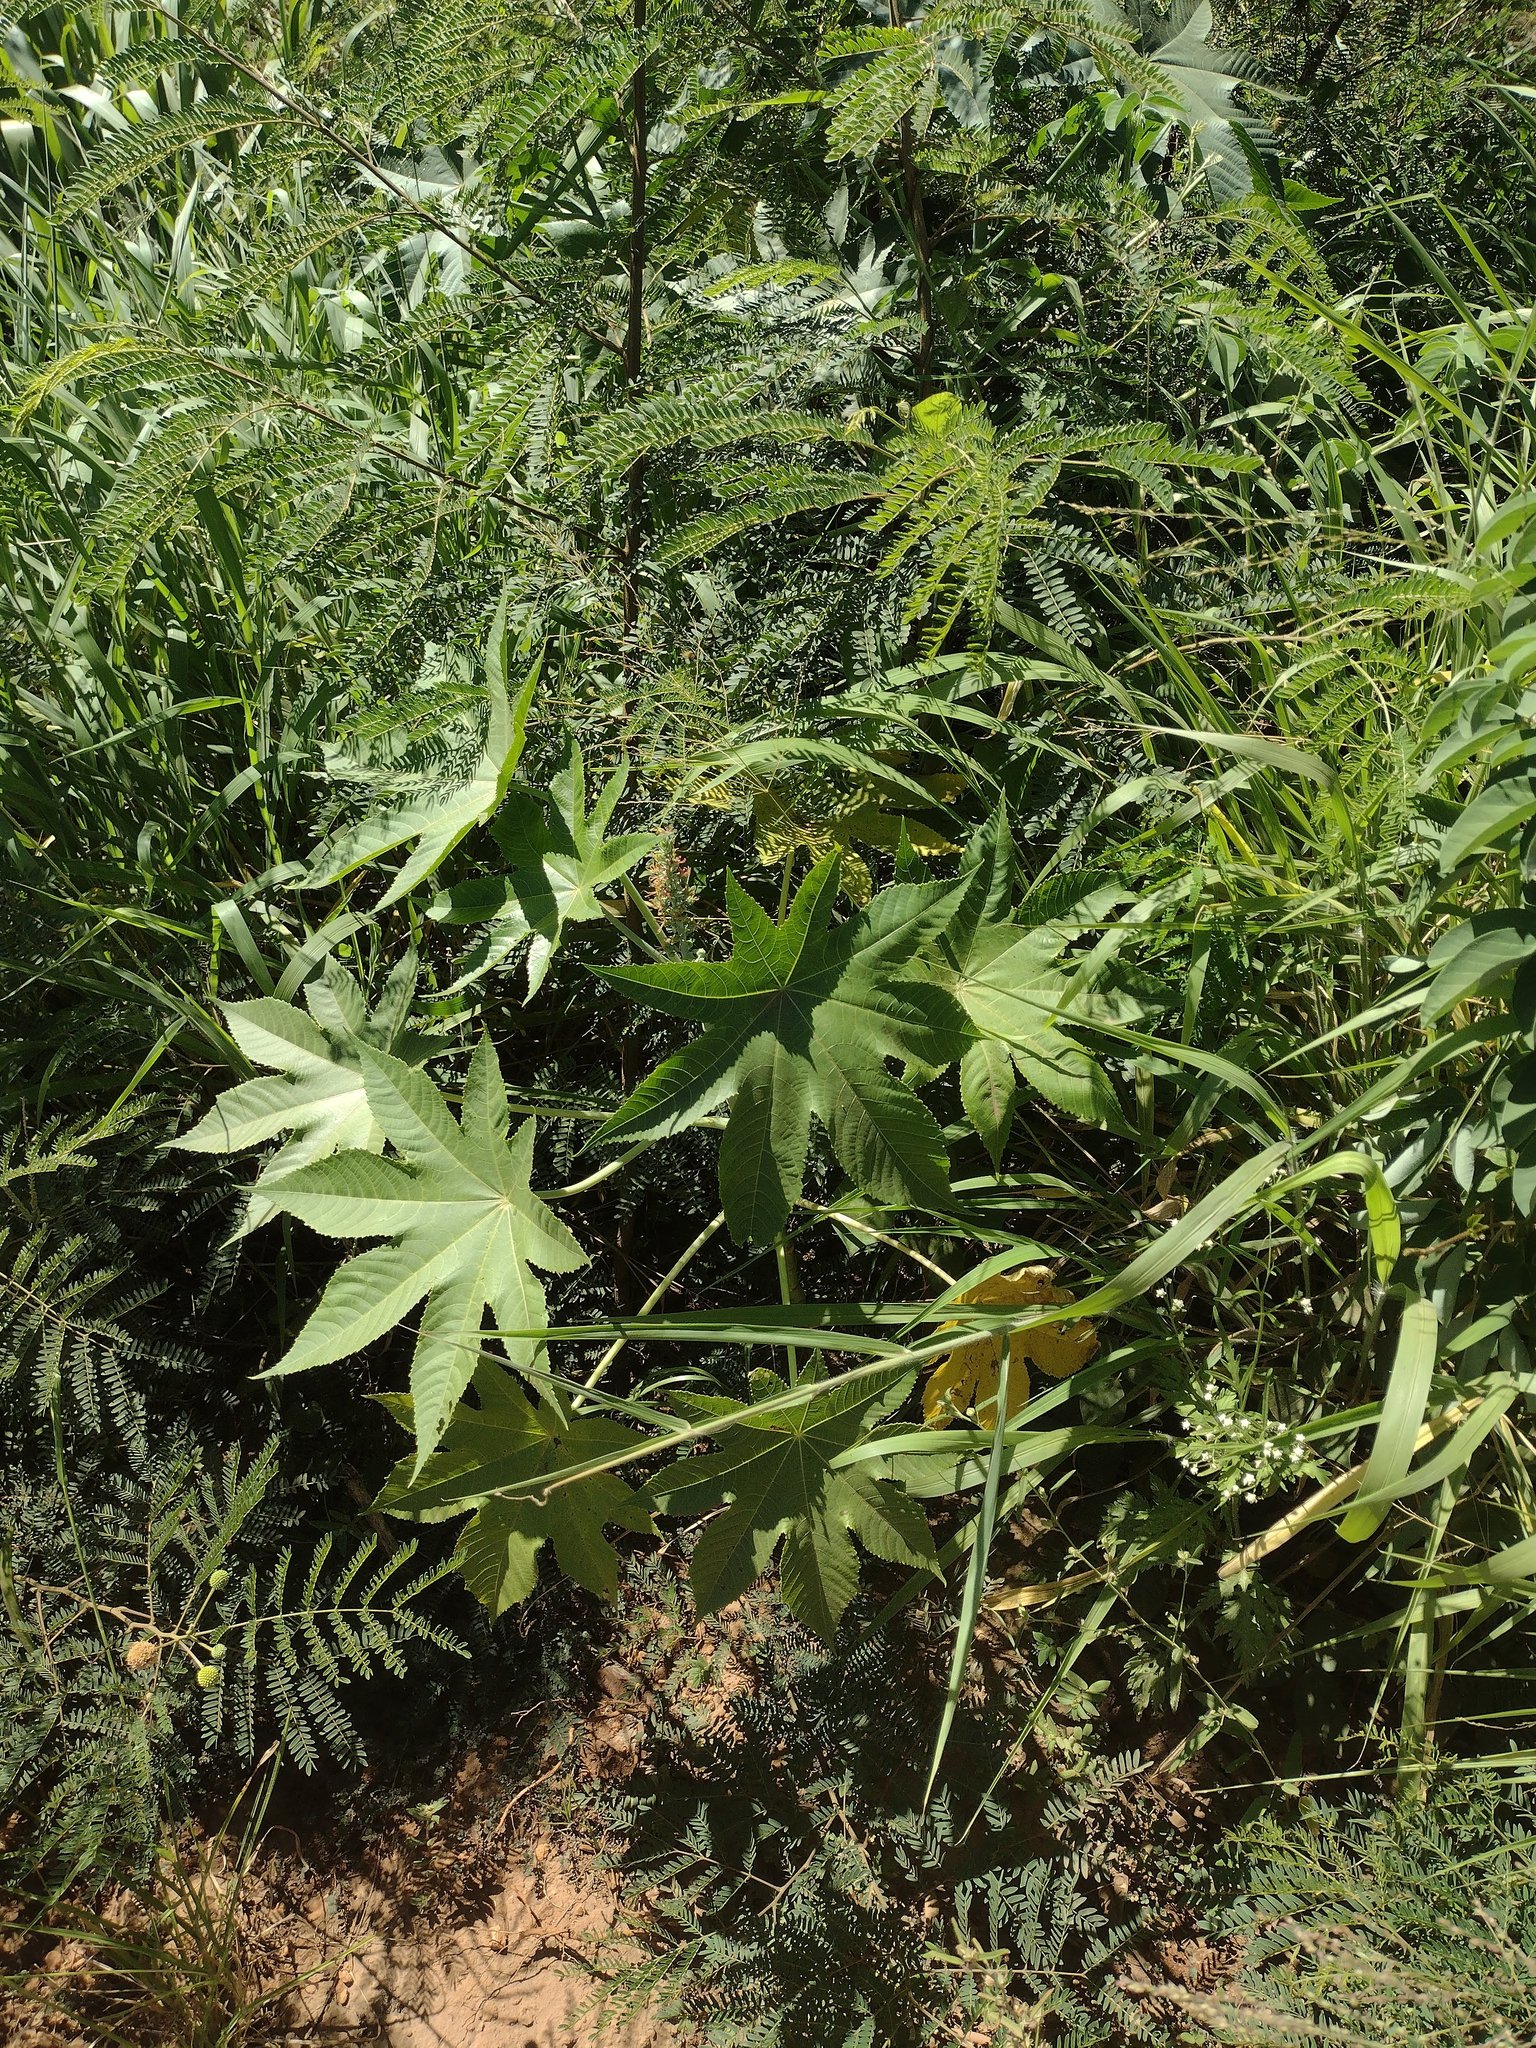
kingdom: Plantae
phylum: Tracheophyta
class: Magnoliopsida
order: Malpighiales
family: Euphorbiaceae
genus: Ricinus
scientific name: Ricinus communis
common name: Castor-oil-plant
